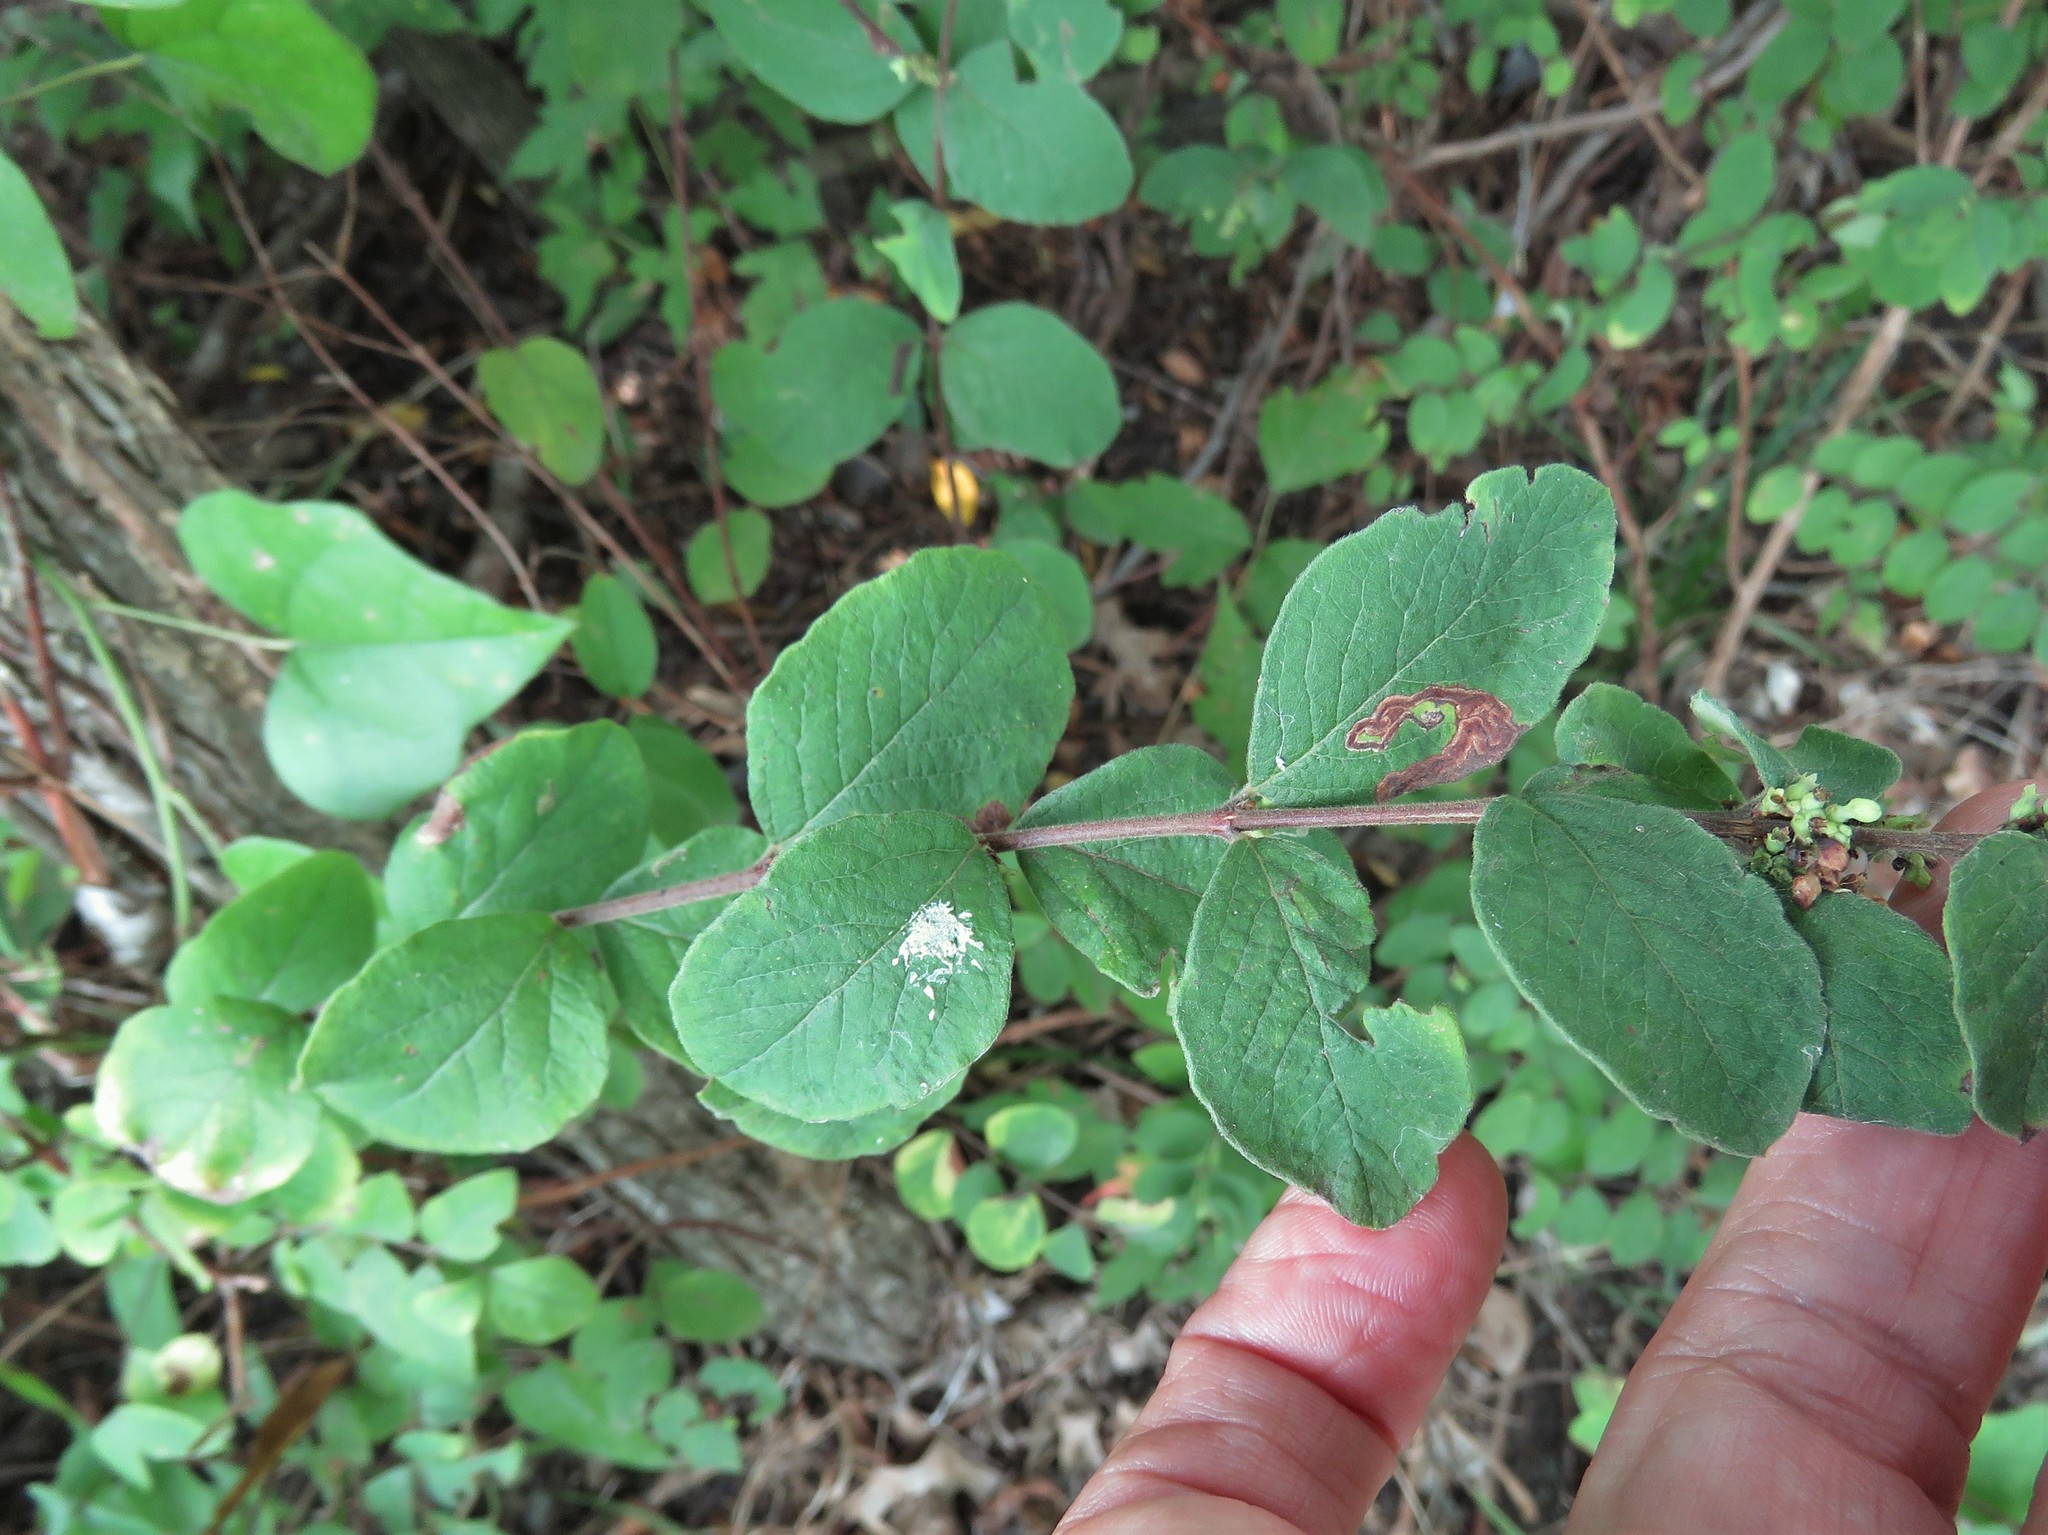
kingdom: Plantae
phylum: Tracheophyta
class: Magnoliopsida
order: Dipsacales
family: Caprifoliaceae
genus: Symphoricarpos
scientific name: Symphoricarpos orbiculatus
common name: Coralberry
